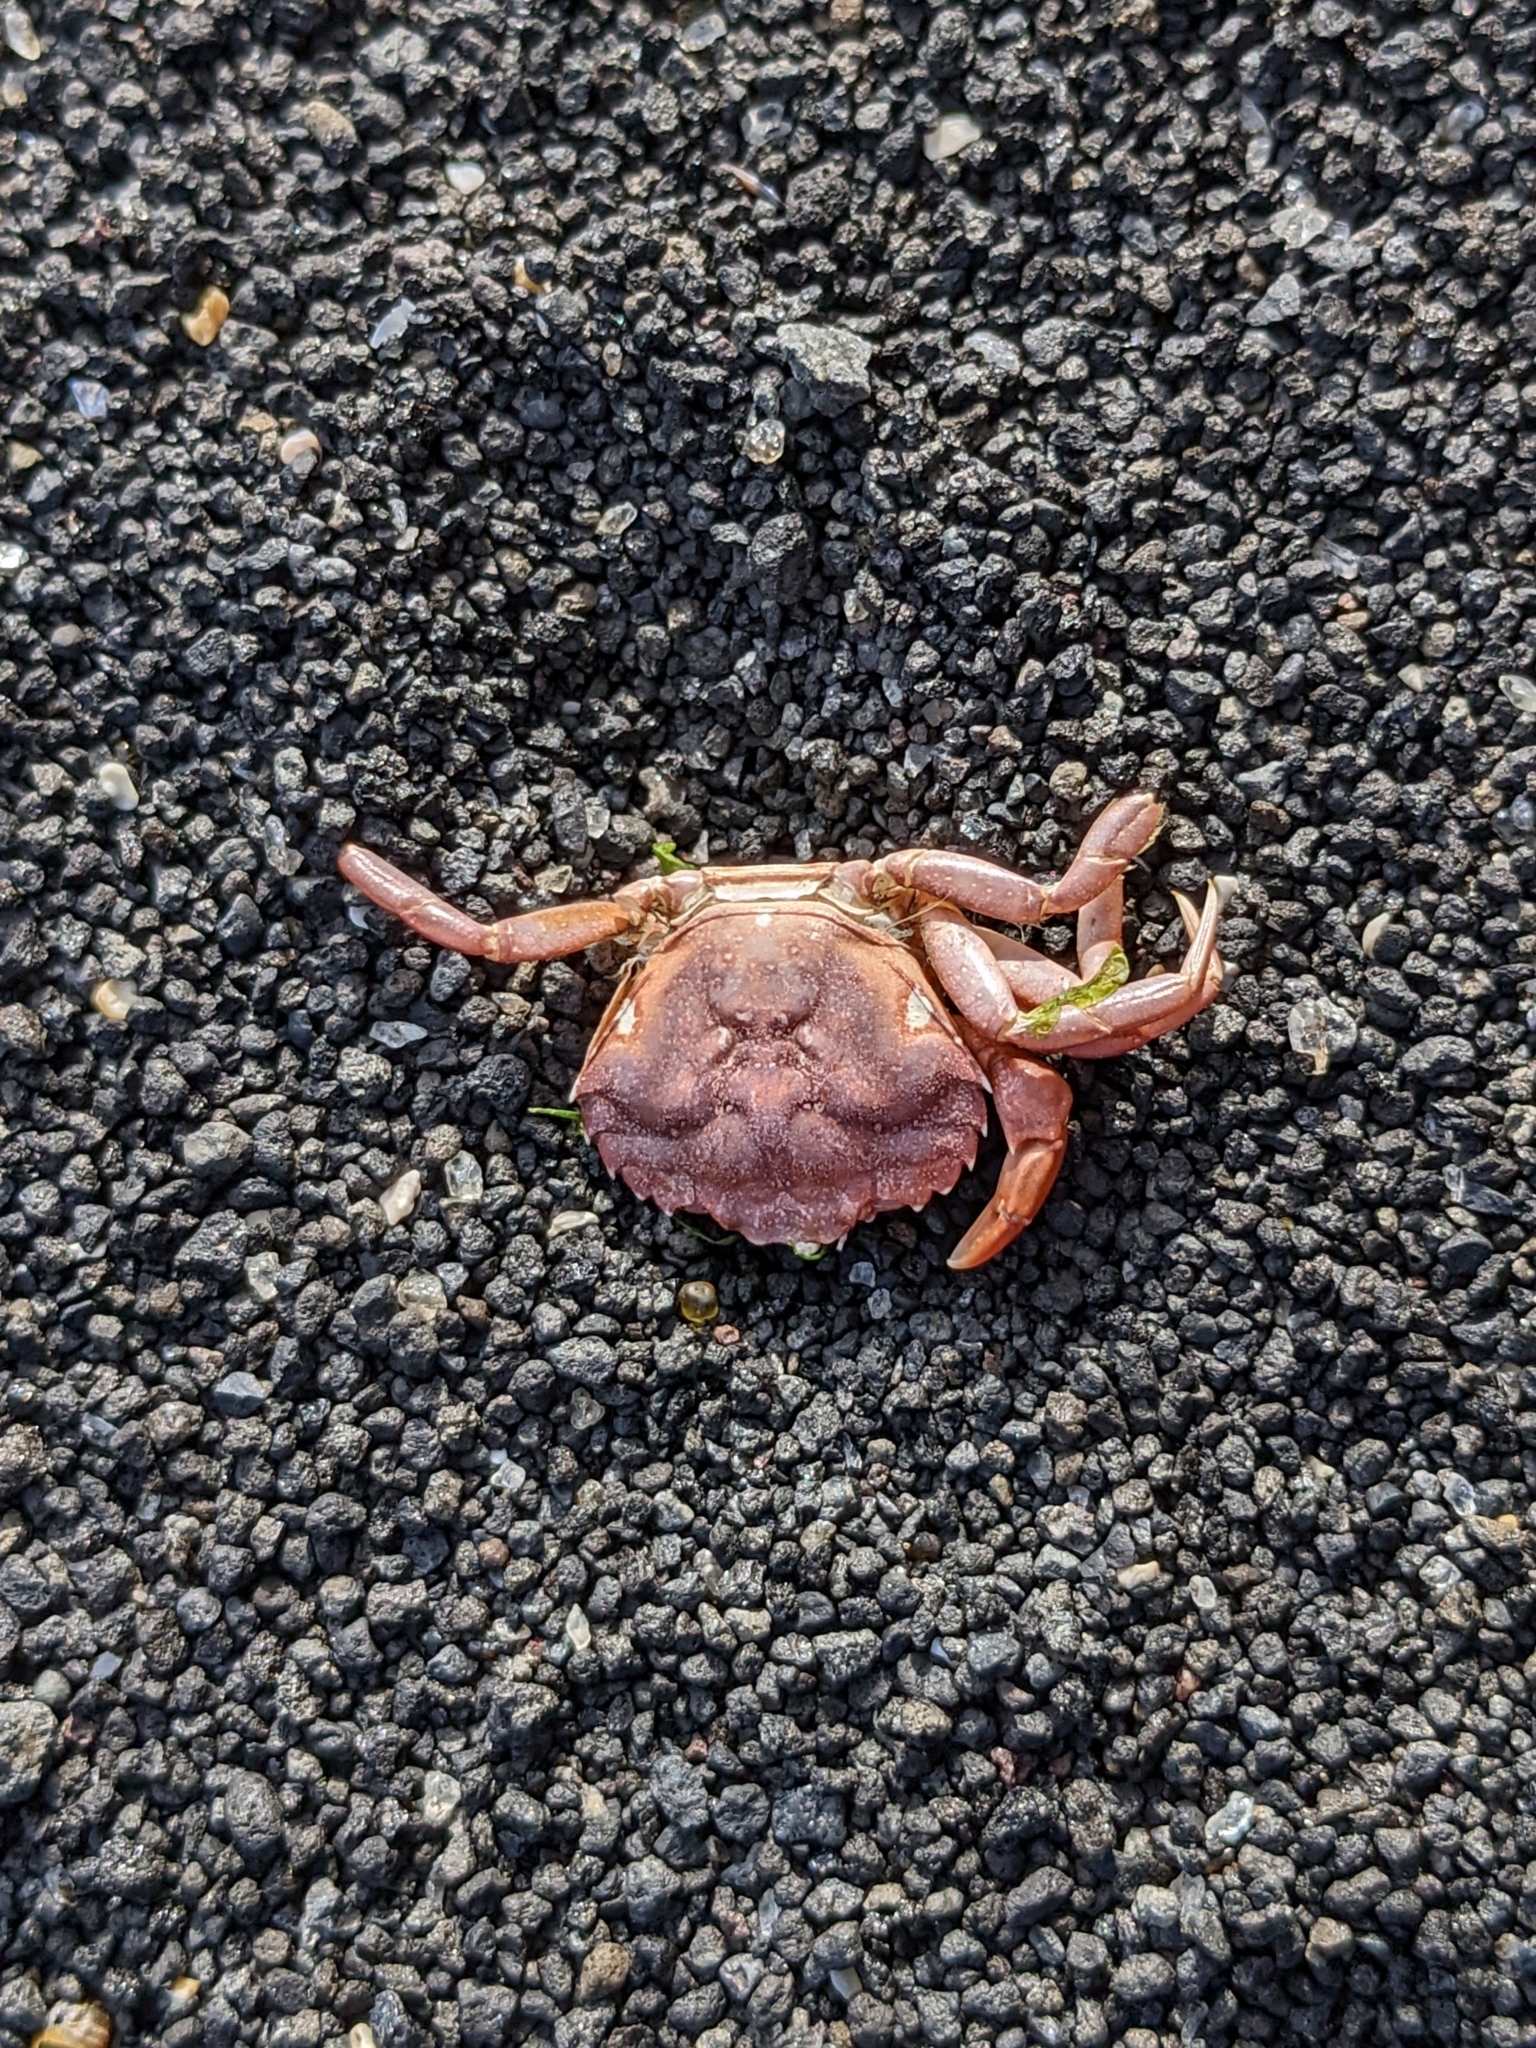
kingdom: Animalia
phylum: Arthropoda
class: Malacostraca
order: Decapoda
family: Carcinidae
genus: Carcinus
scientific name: Carcinus maenas
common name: European green crab
